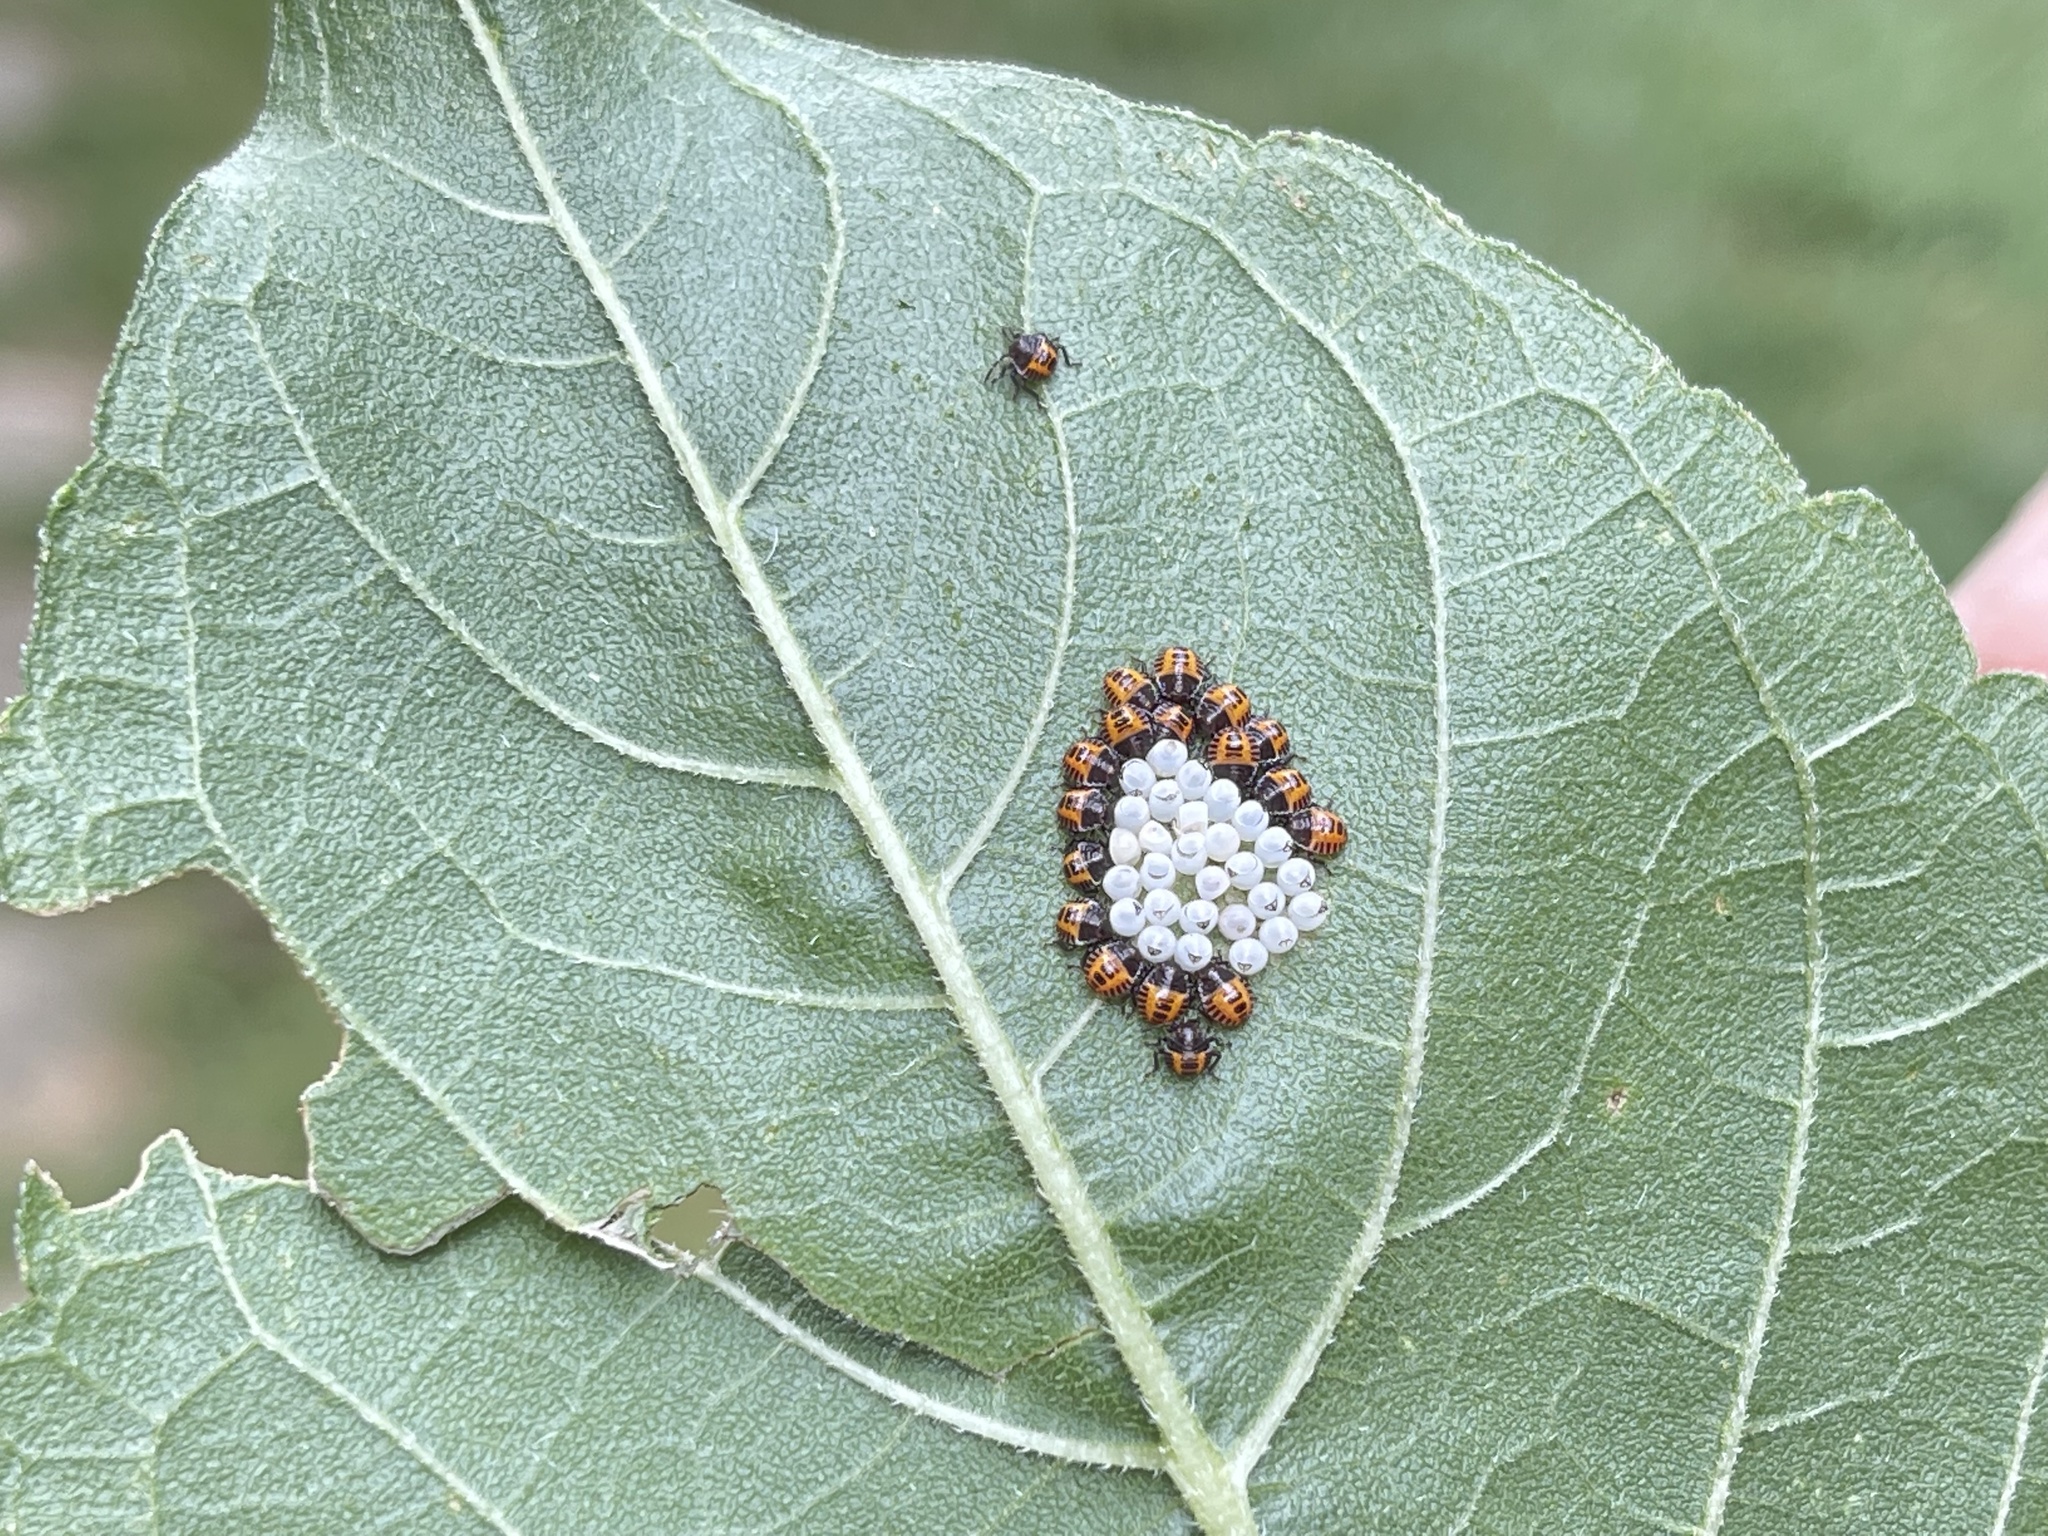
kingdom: Animalia
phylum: Arthropoda
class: Insecta
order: Hemiptera
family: Pentatomidae
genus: Halyomorpha
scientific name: Halyomorpha halys
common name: Brown marmorated stink bug
